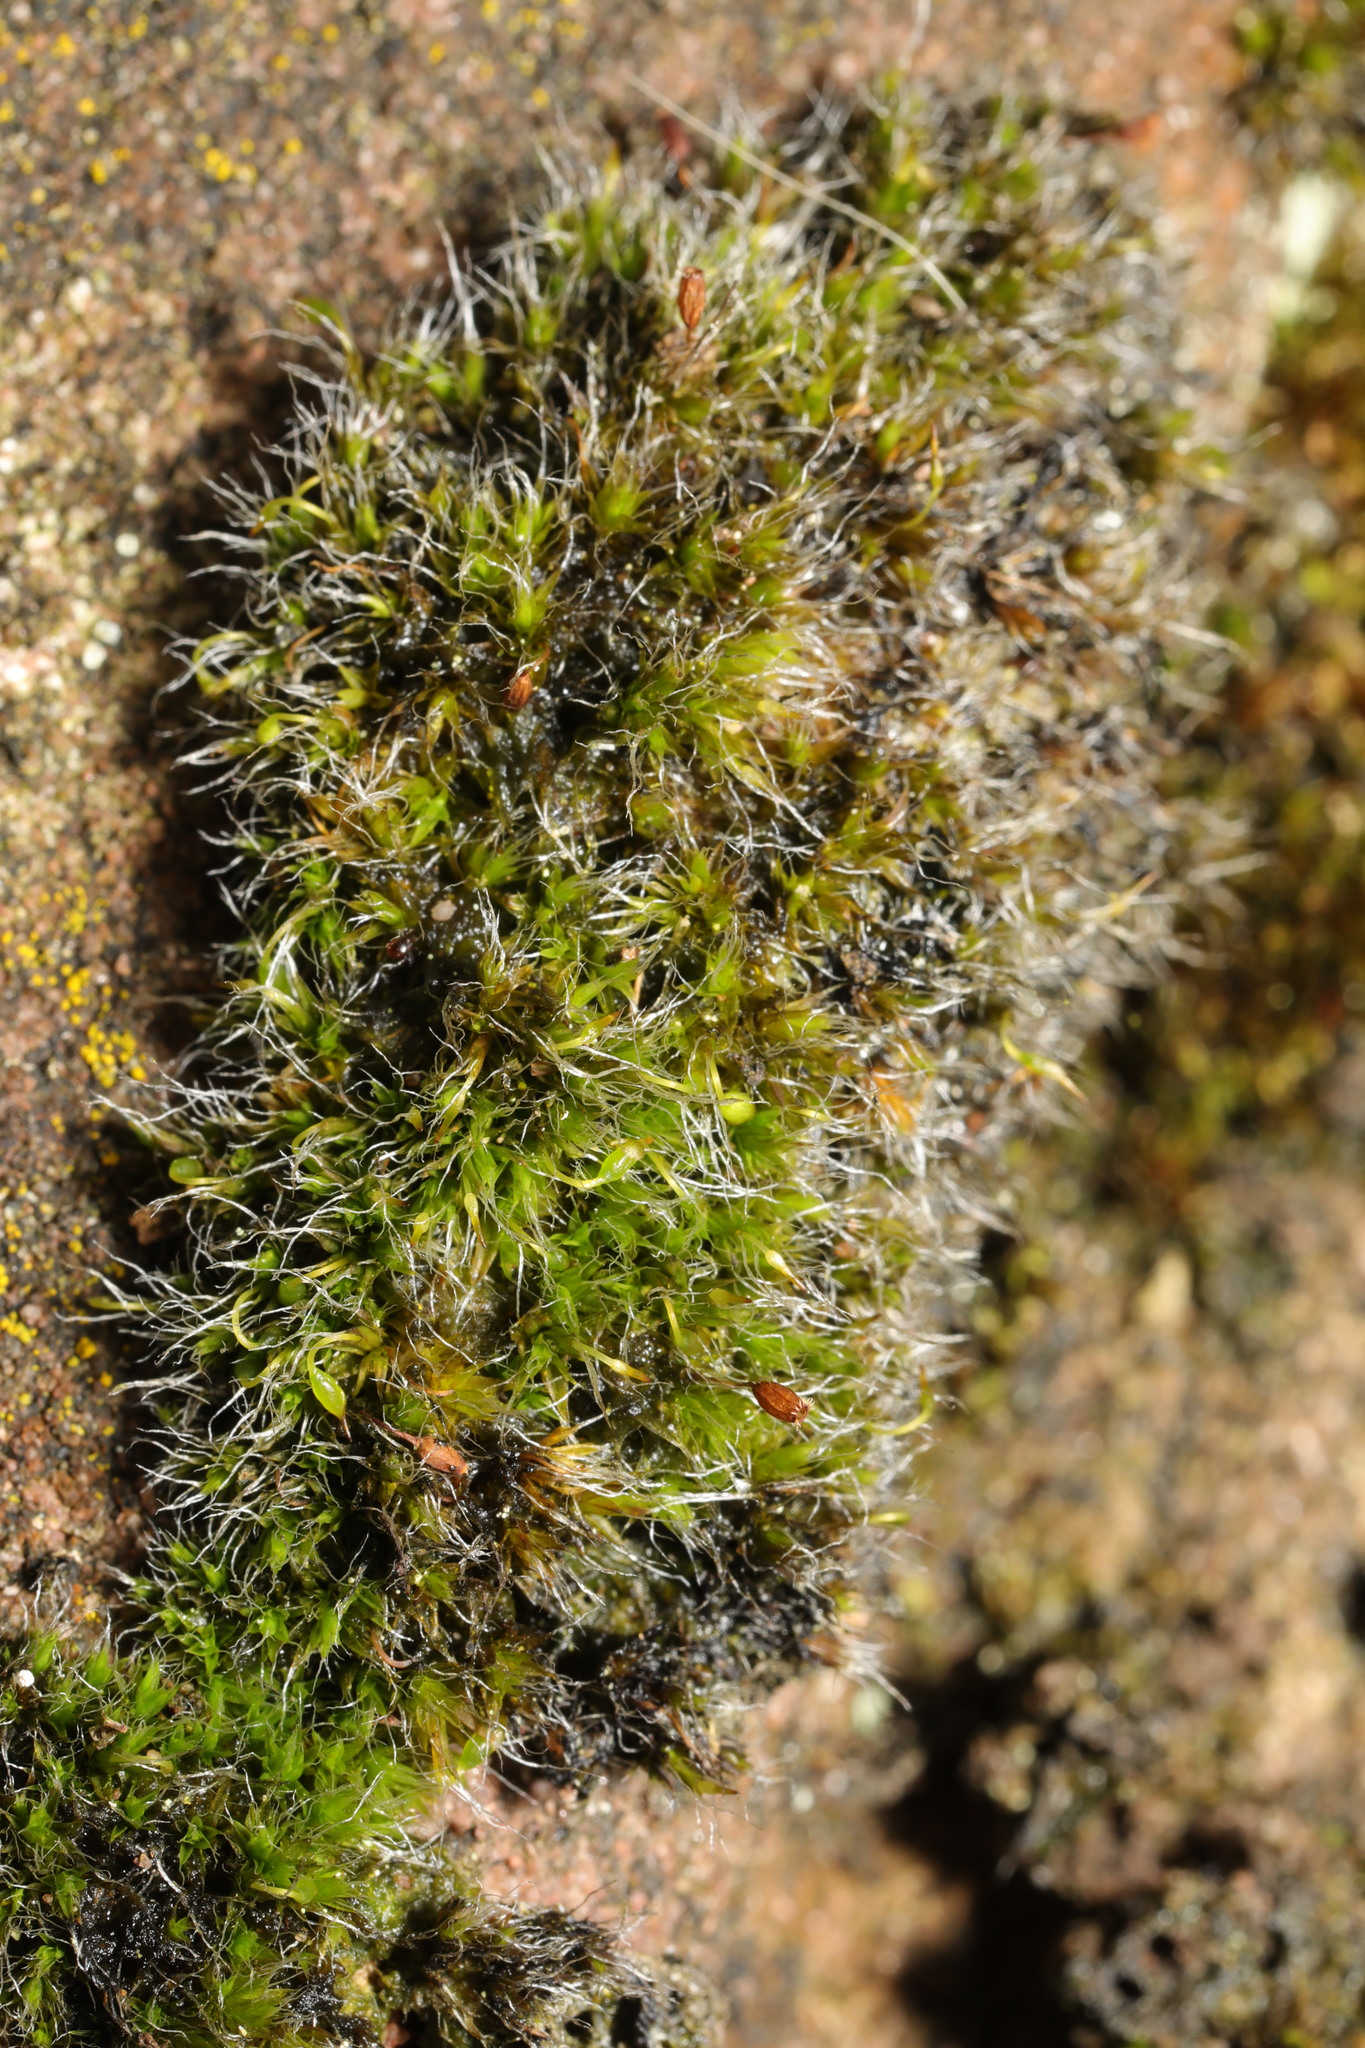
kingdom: Plantae
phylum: Bryophyta
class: Bryopsida
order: Grimmiales
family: Grimmiaceae
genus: Grimmia
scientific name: Grimmia pulvinata
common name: Grey-cushioned grimmia
